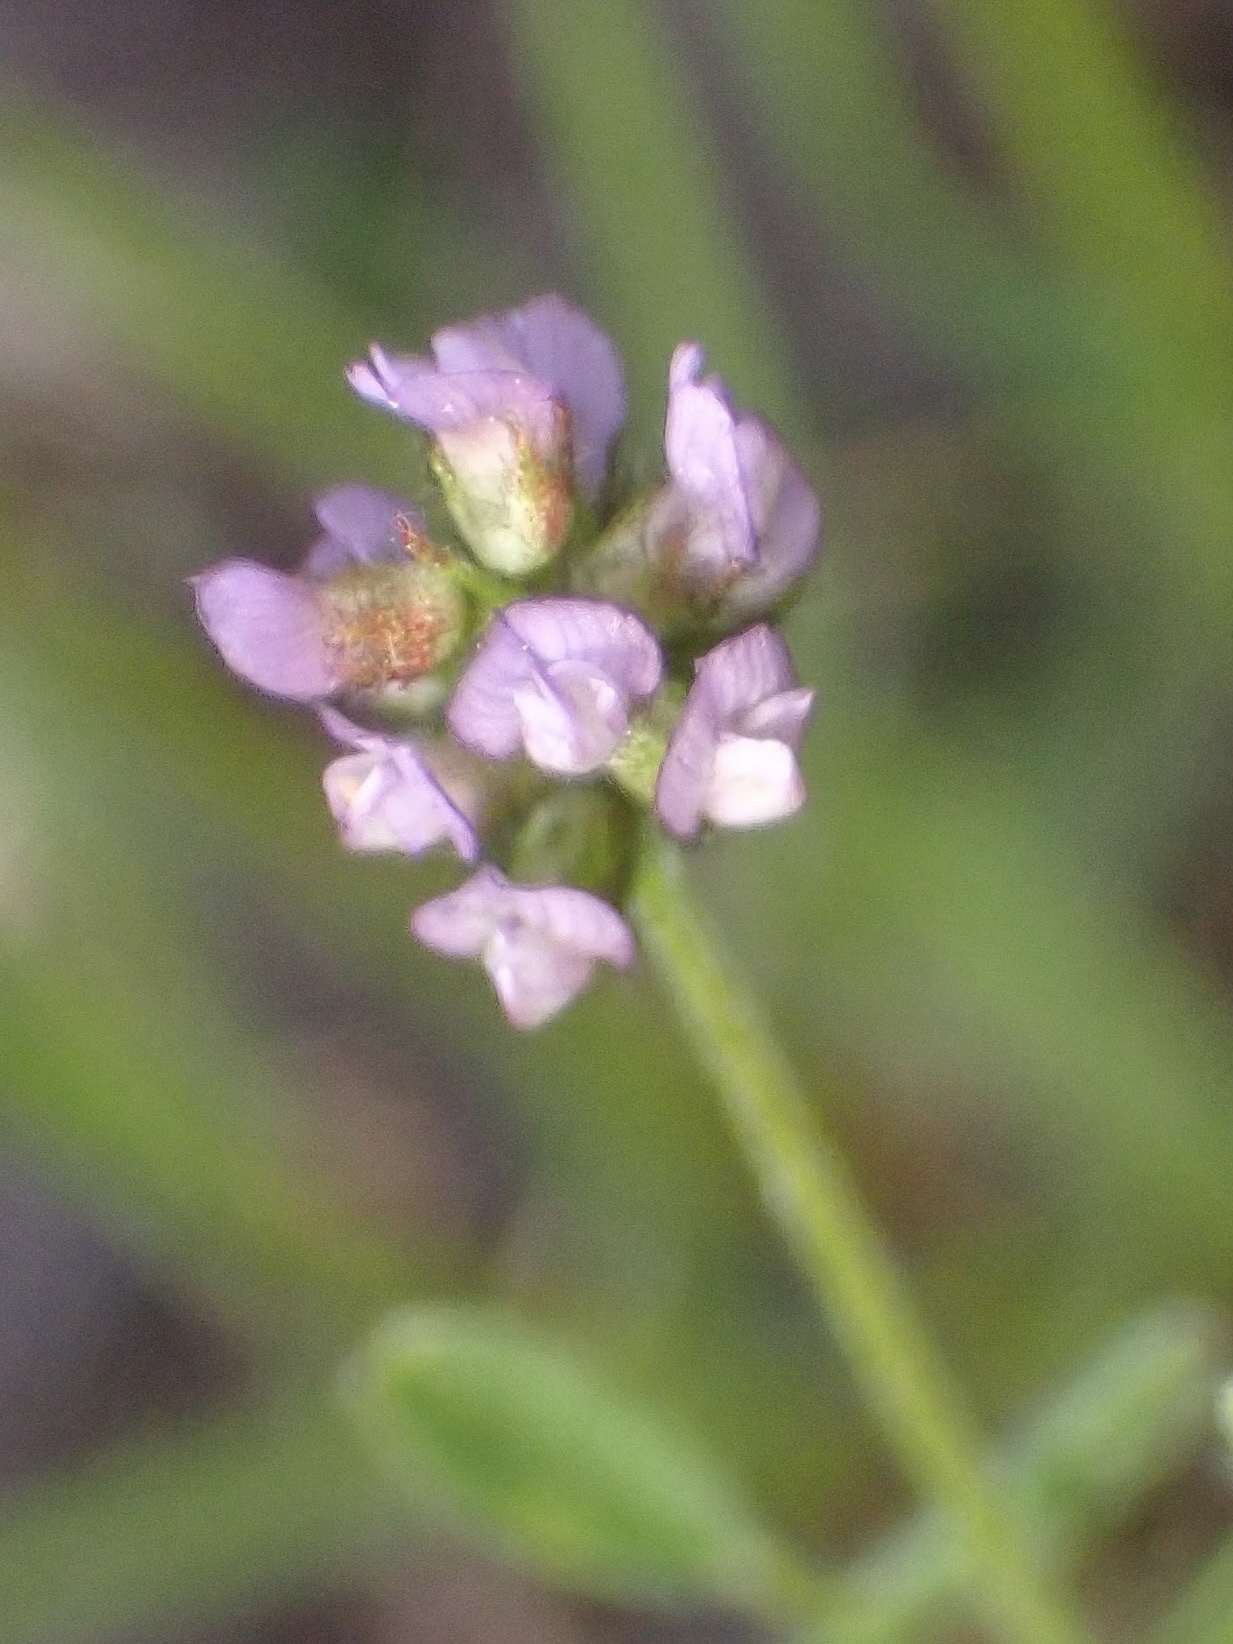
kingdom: Plantae
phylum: Tracheophyta
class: Magnoliopsida
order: Fabales
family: Fabaceae
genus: Astragalus
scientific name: Astragalus gambelianus
